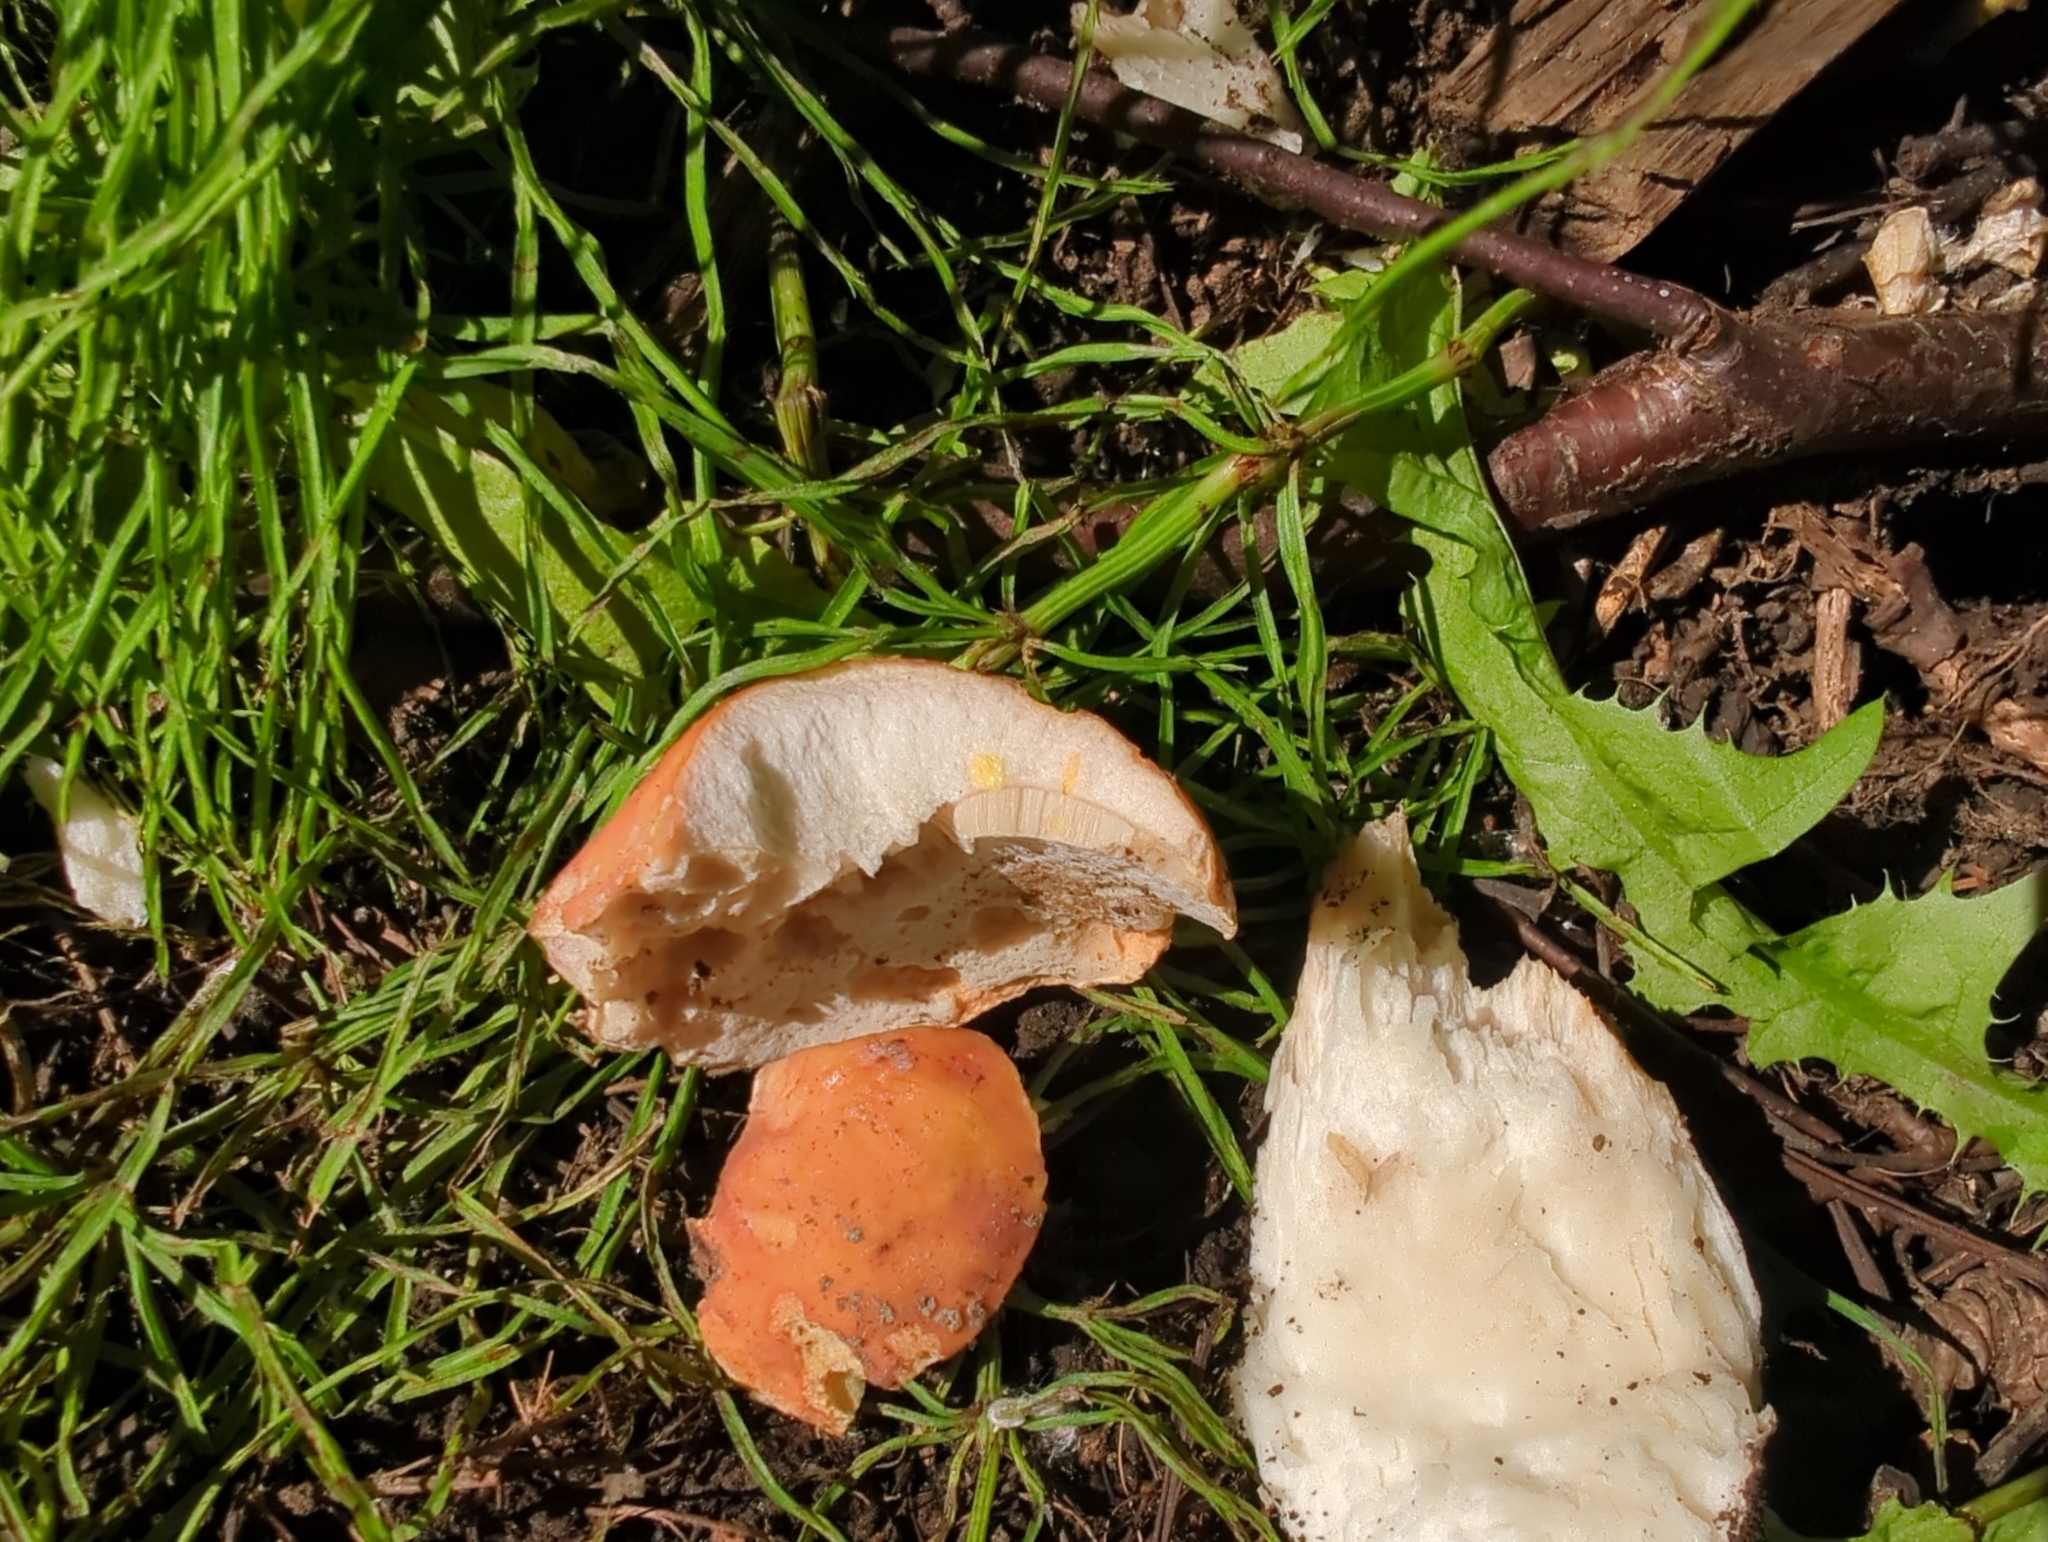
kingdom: Fungi
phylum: Basidiomycota
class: Agaricomycetes
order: Boletales
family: Boletaceae
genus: Boletus
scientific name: Boletus edulis
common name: Cep
